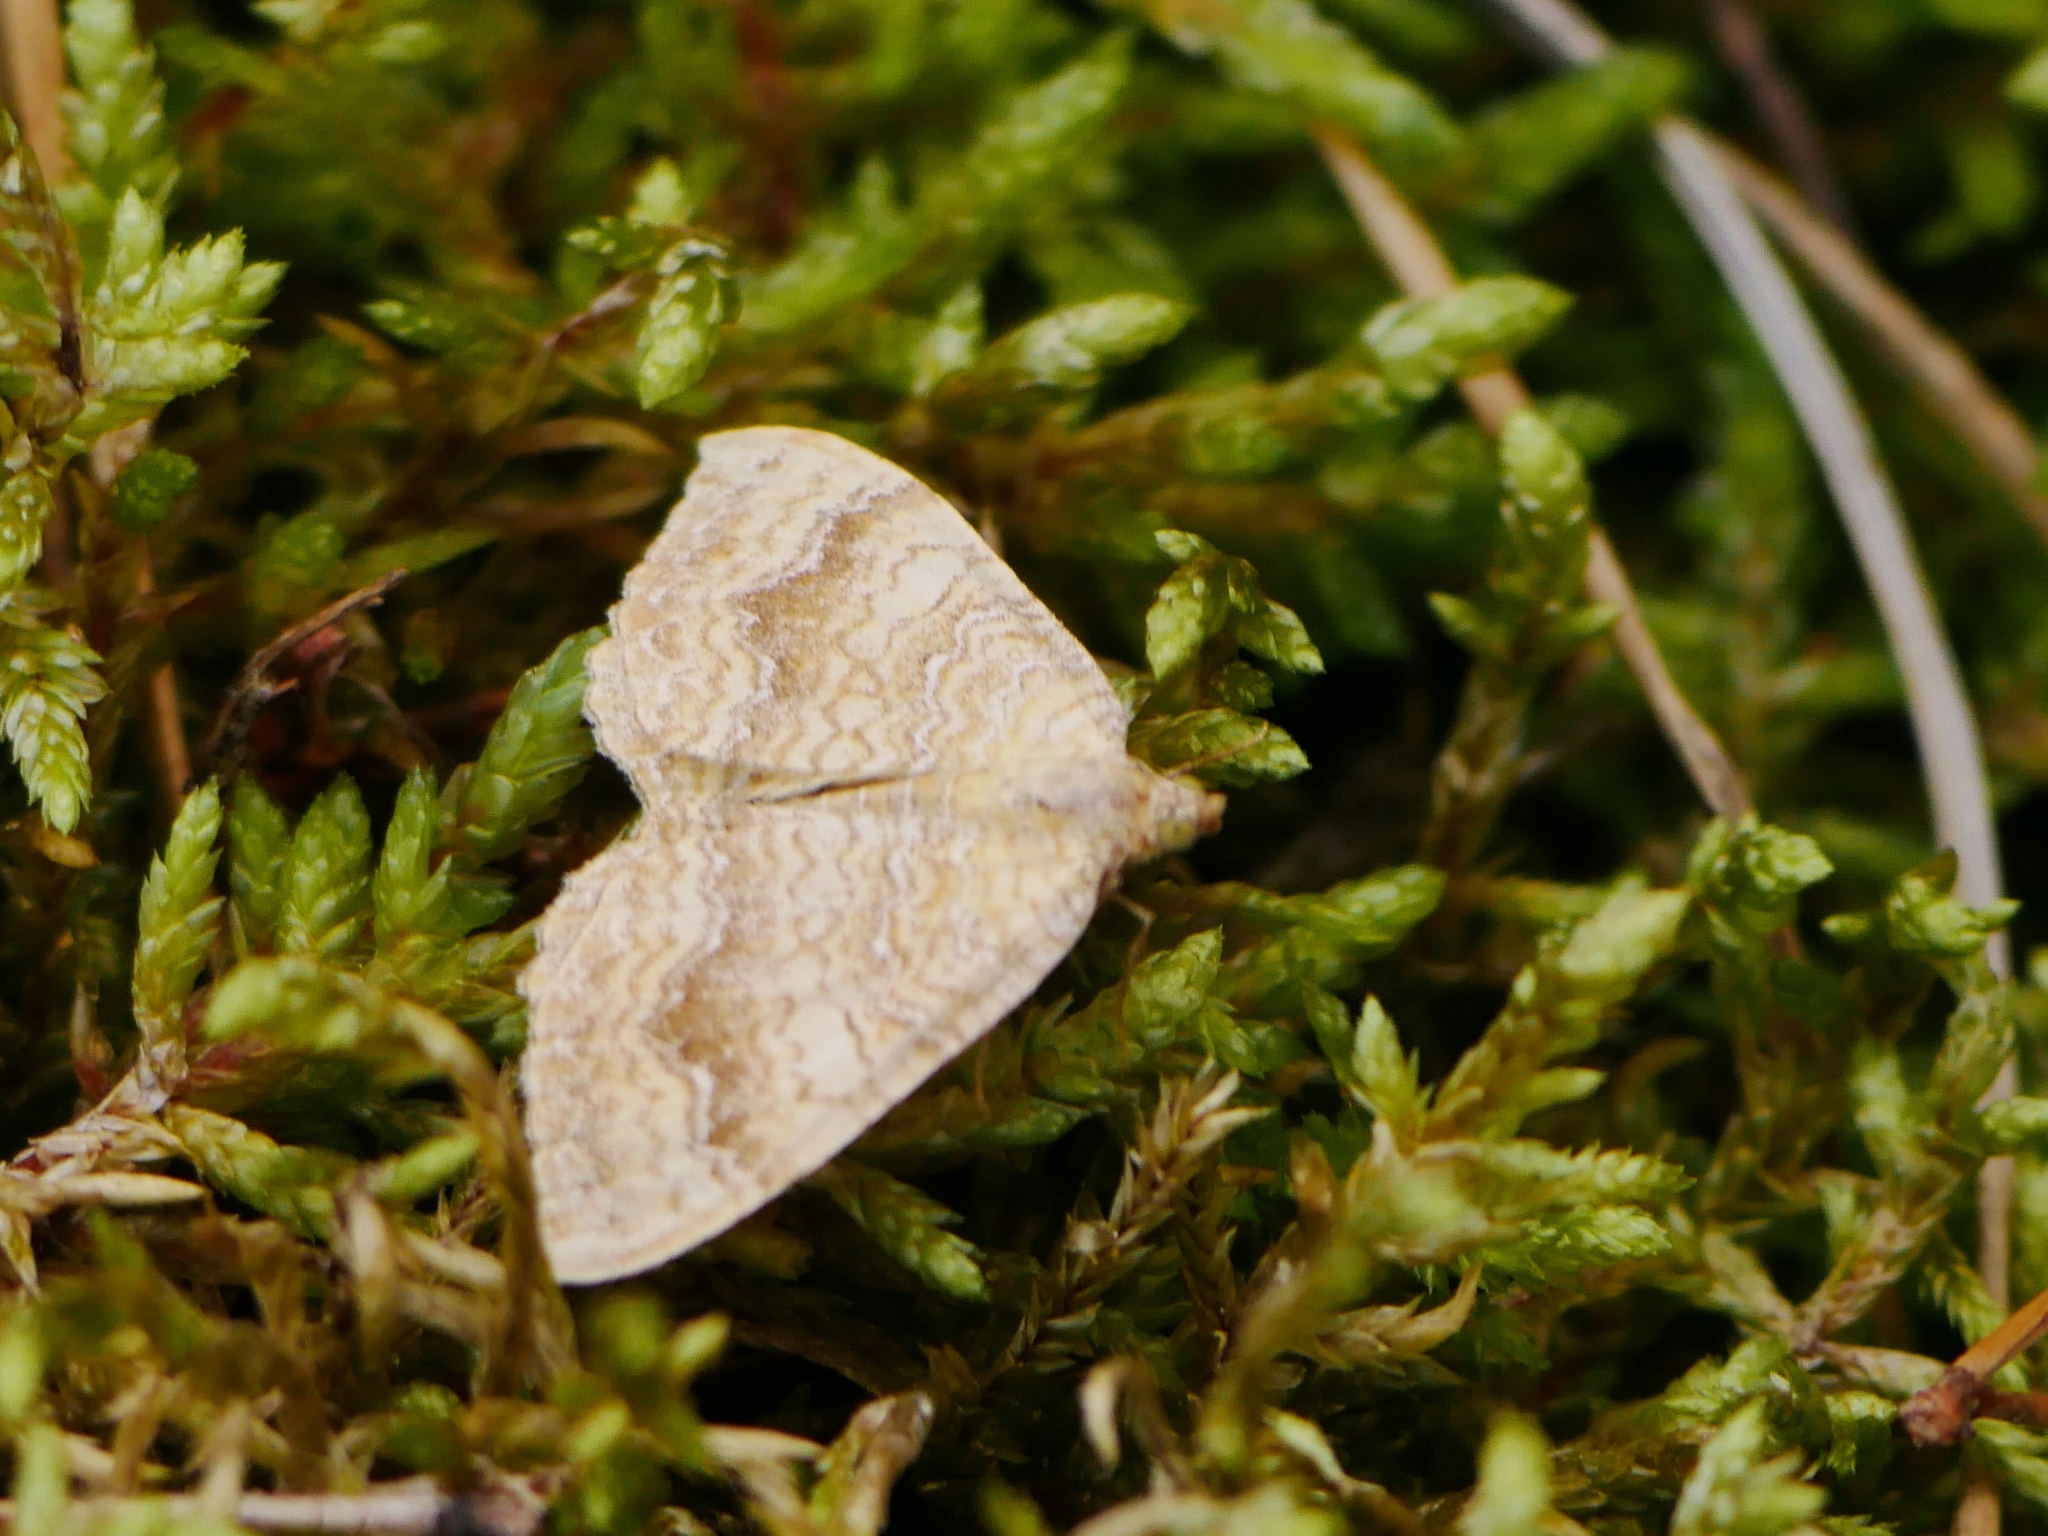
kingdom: Animalia
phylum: Arthropoda
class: Insecta
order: Lepidoptera
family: Geometridae
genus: Camptogramma
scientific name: Camptogramma bilineata
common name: Yellow shell
